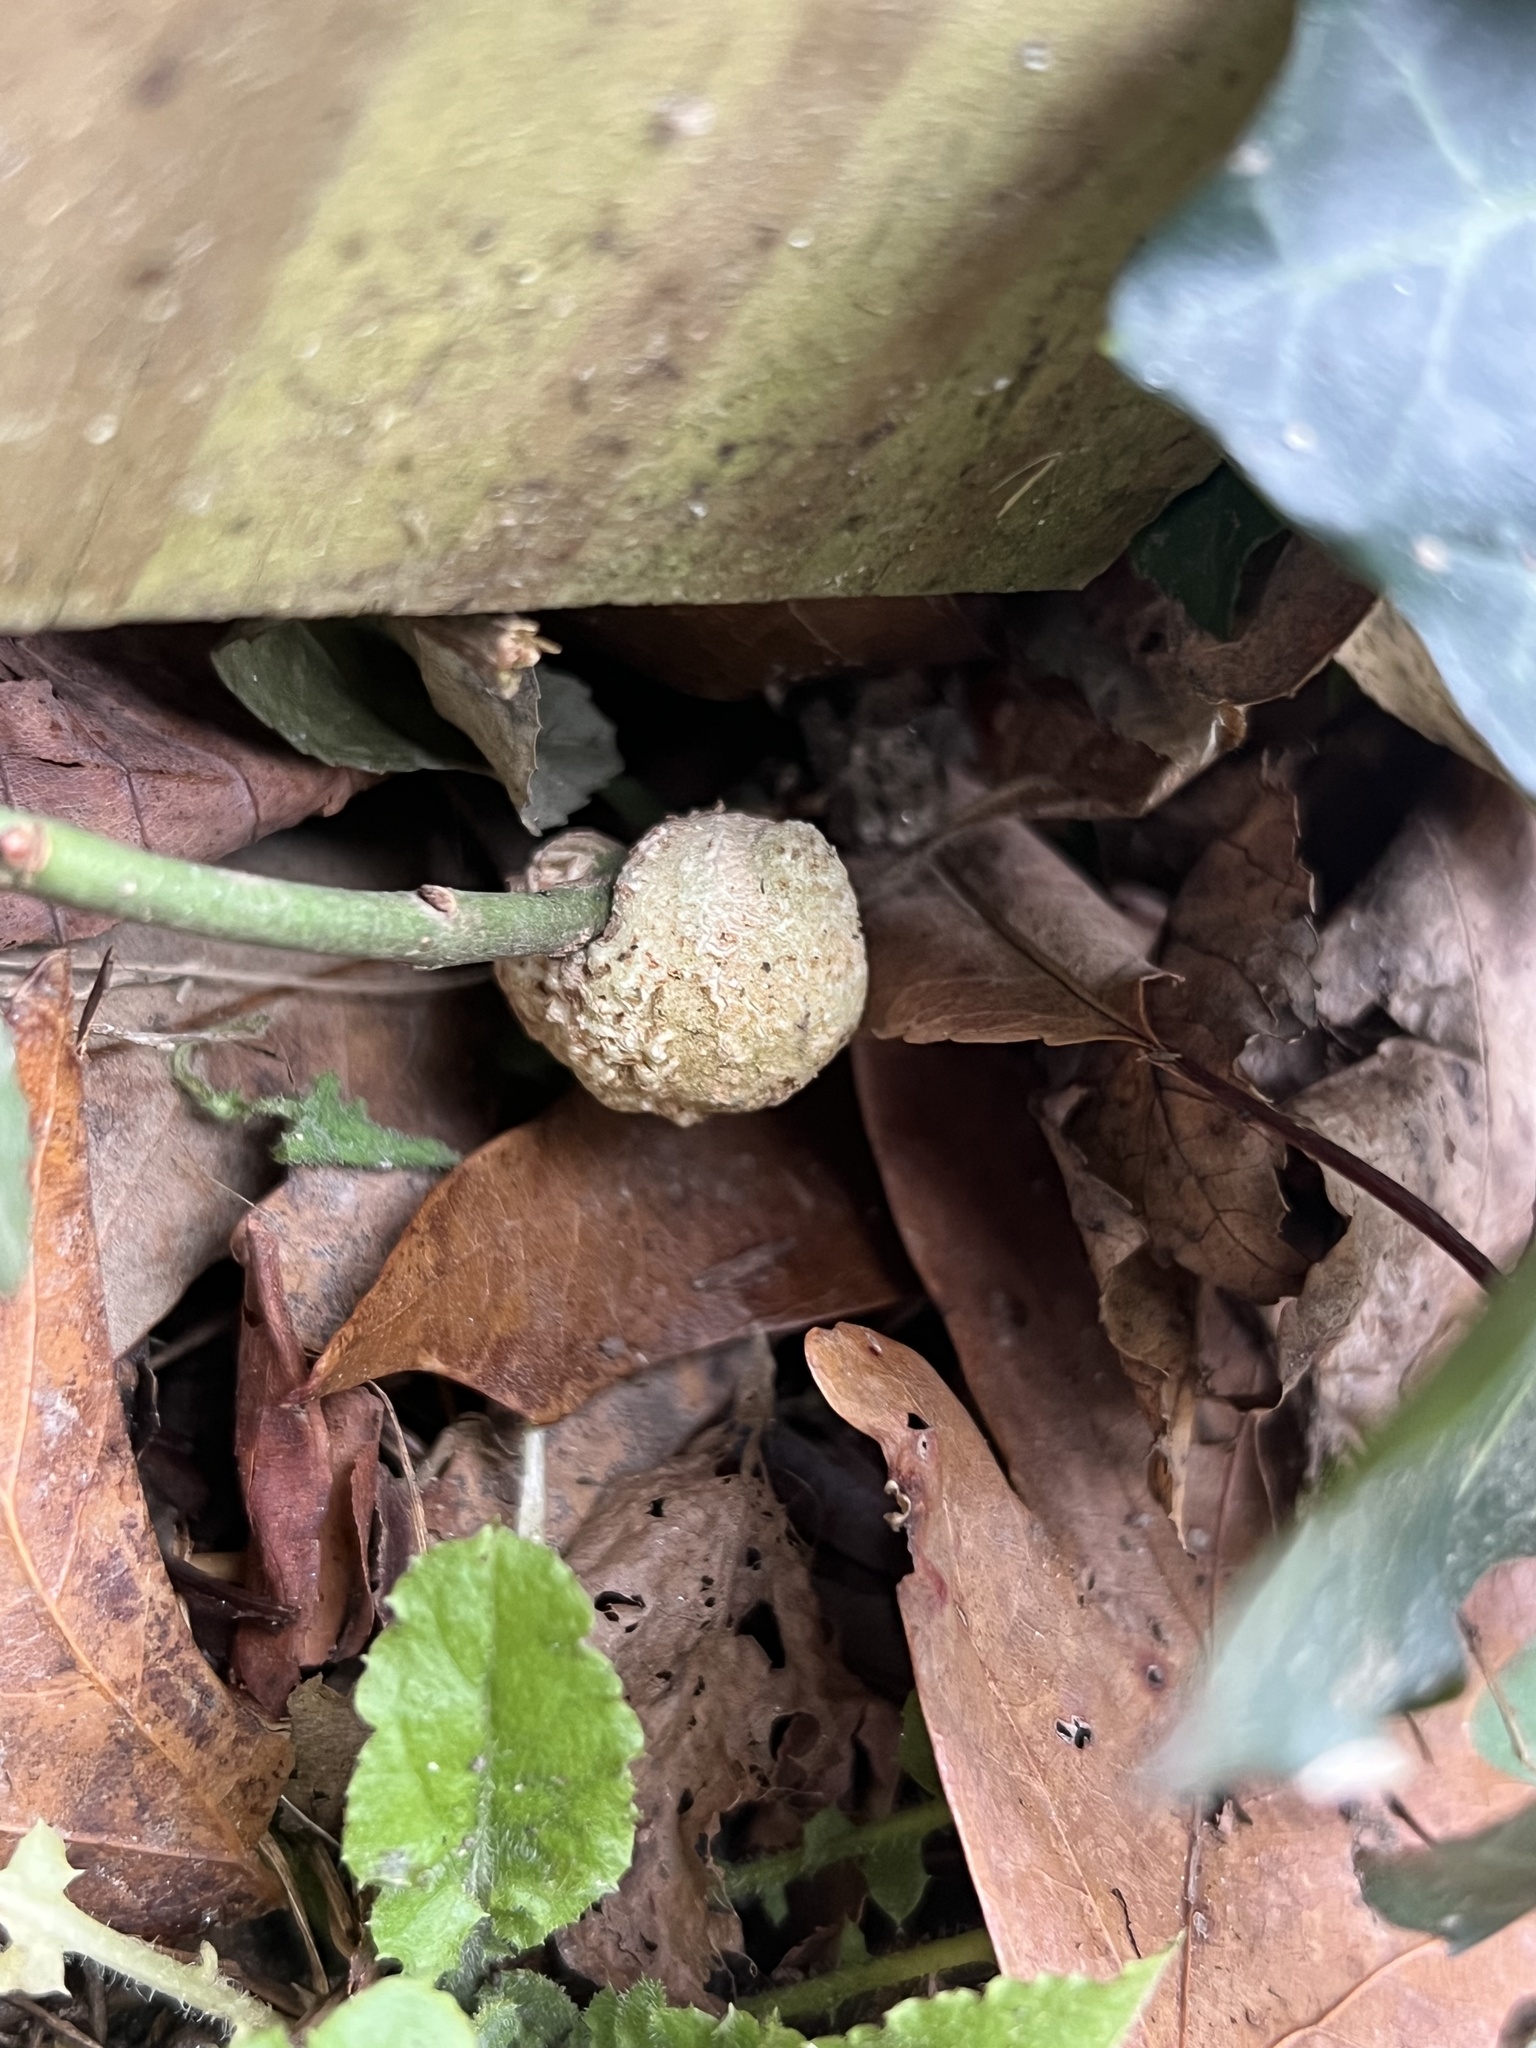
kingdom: Bacteria
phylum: Proteobacteria
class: Alphaproteobacteria
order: Rhizobiales
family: Rhizobiaceae
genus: Rhizobium
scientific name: Rhizobium Agrobacterium radiobacter
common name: Bacterial crown gall
